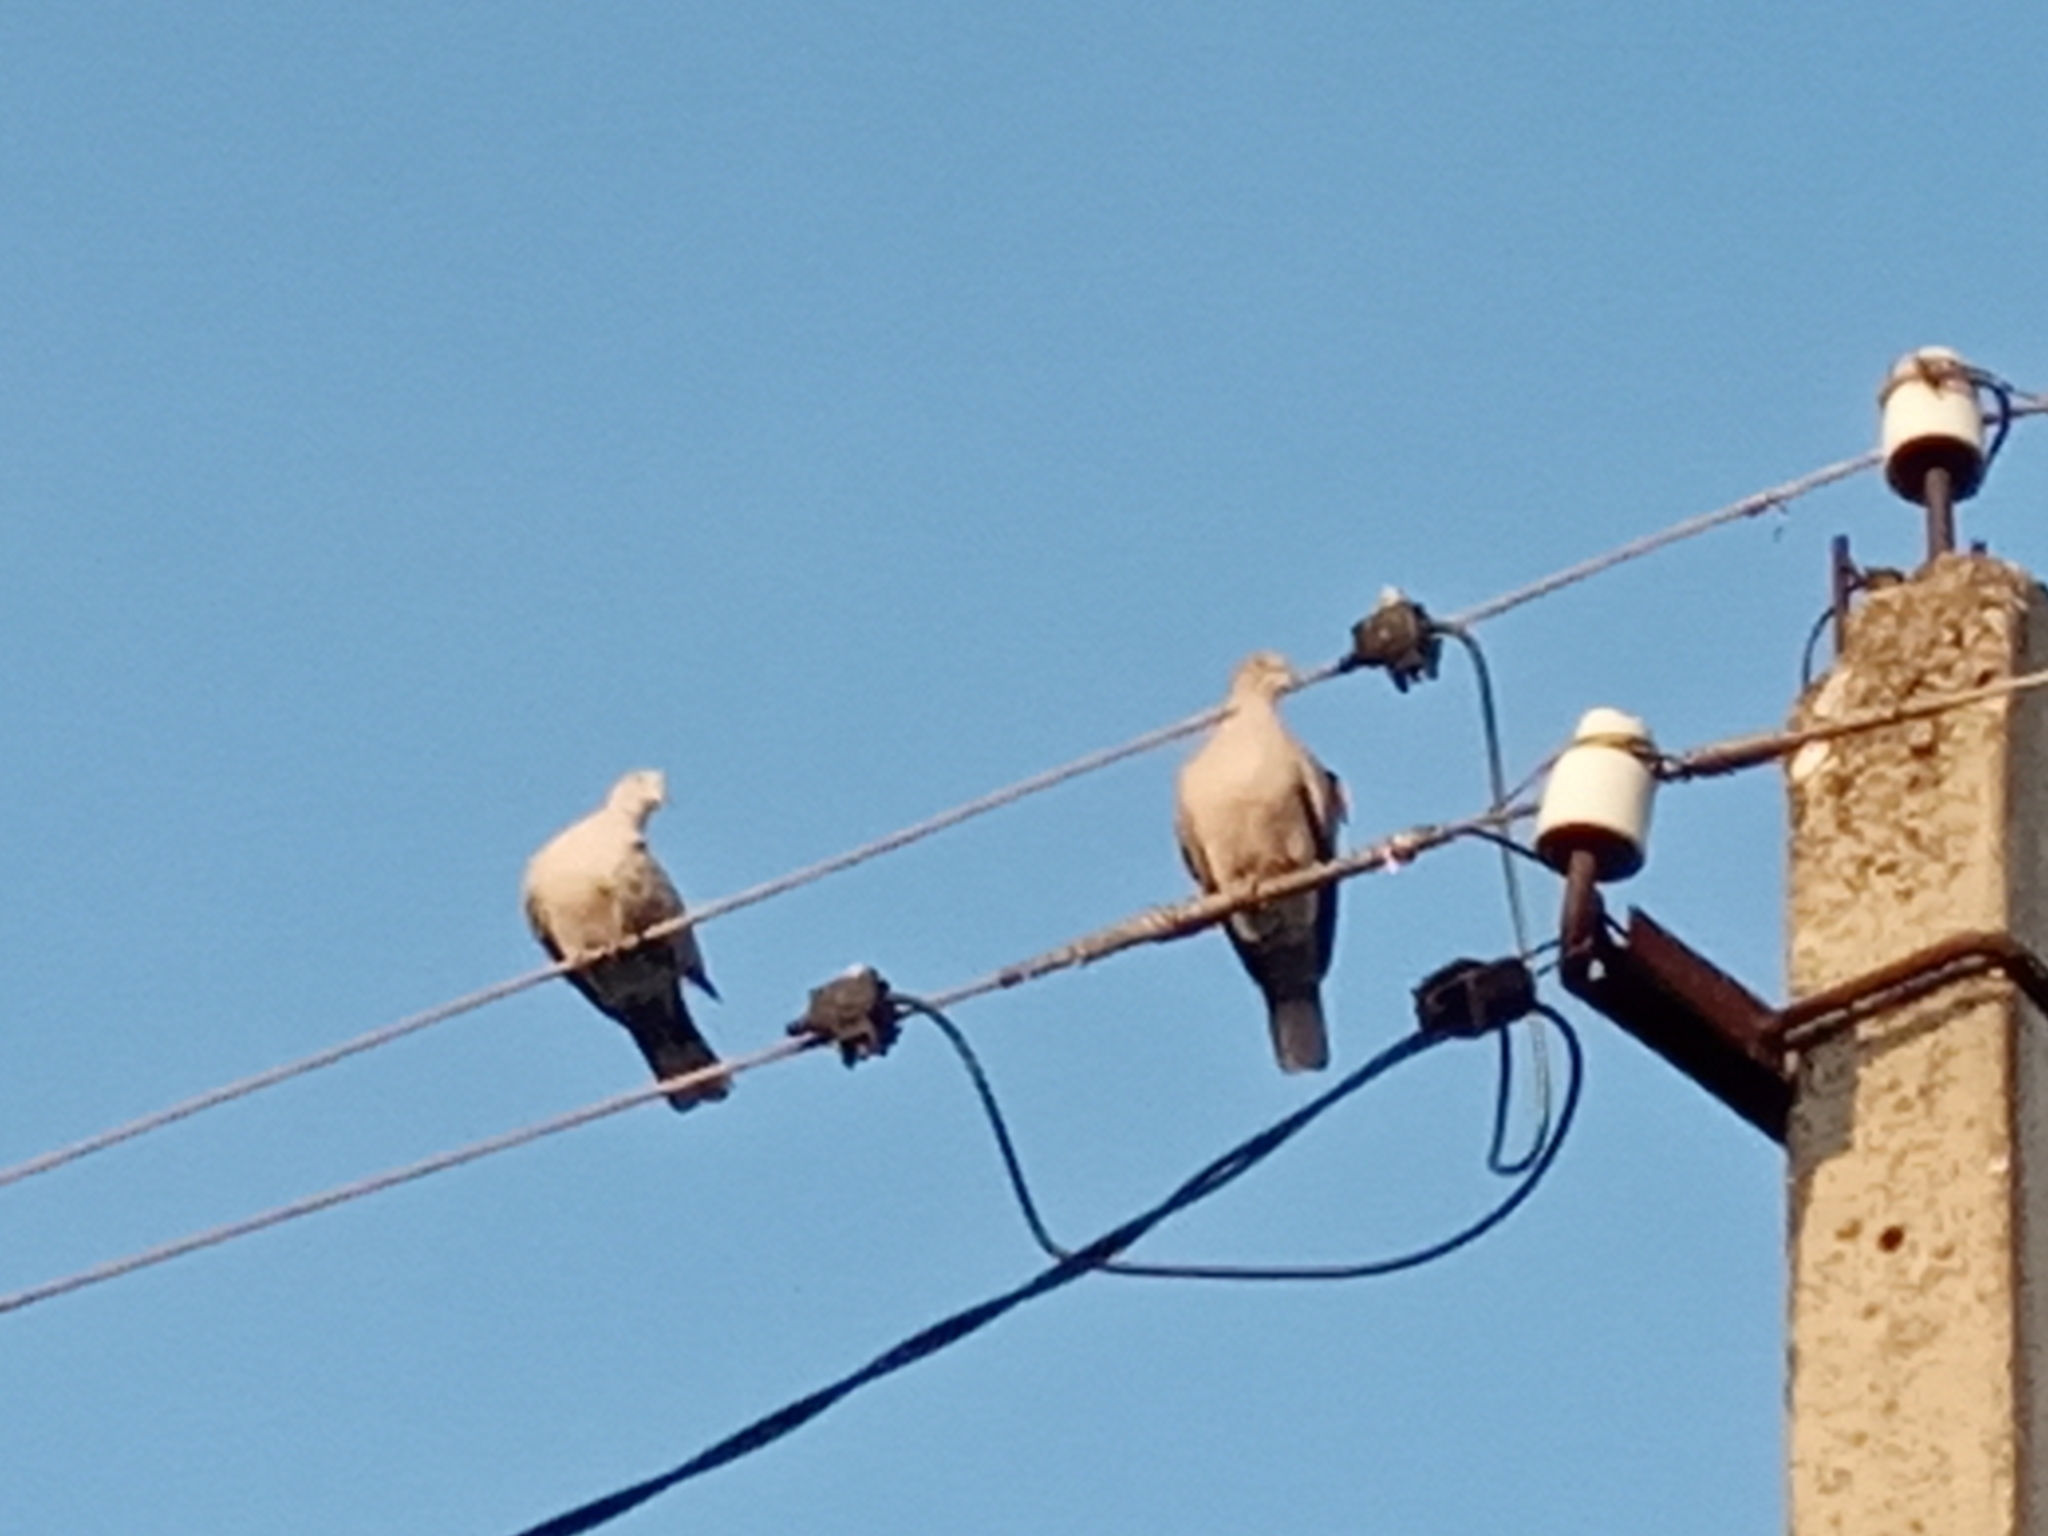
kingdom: Animalia
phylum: Chordata
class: Aves
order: Columbiformes
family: Columbidae
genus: Streptopelia
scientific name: Streptopelia decaocto
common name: Eurasian collared dove
